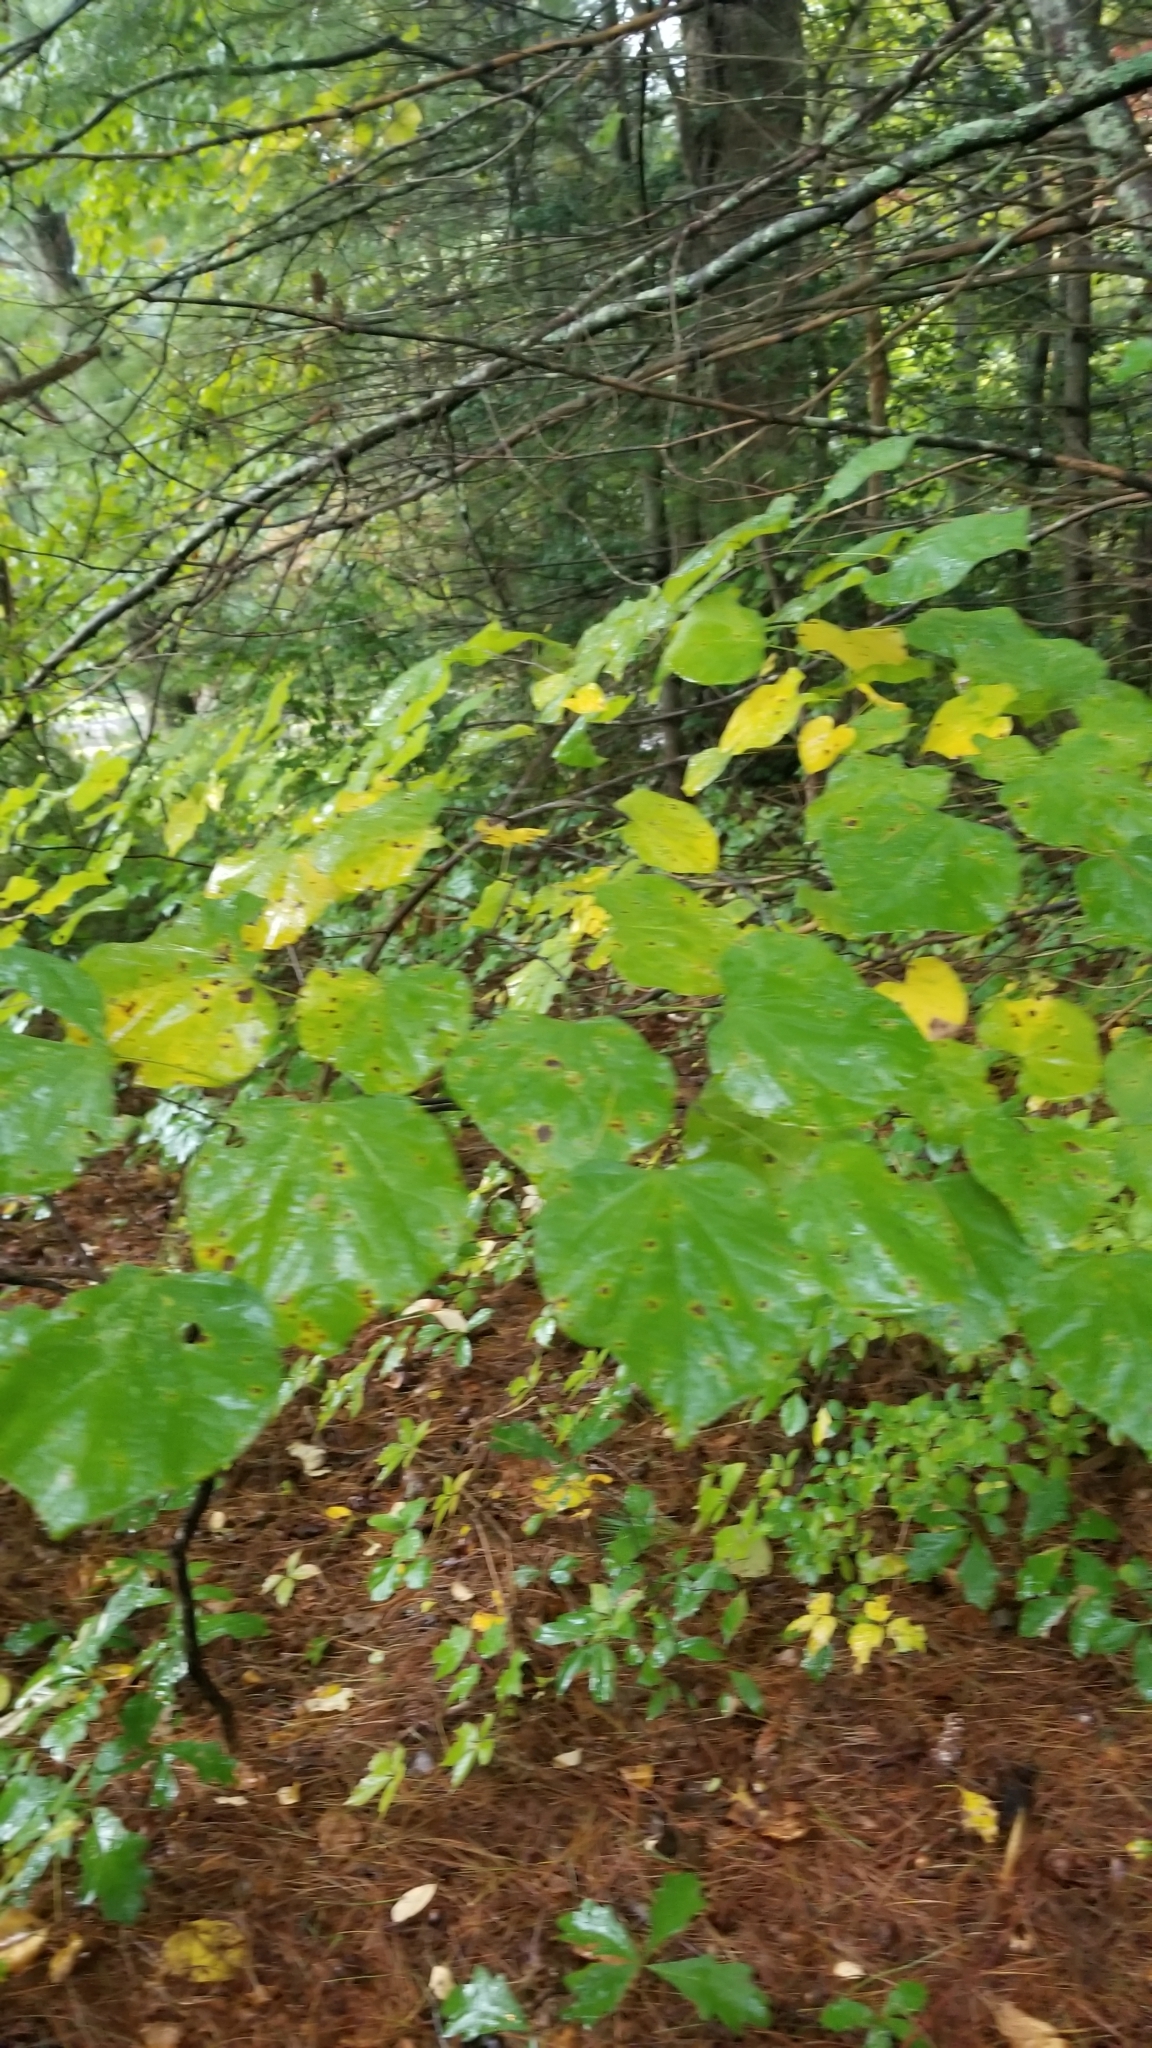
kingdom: Plantae
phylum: Tracheophyta
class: Magnoliopsida
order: Fabales
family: Fabaceae
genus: Cercis
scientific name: Cercis canadensis
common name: Eastern redbud
